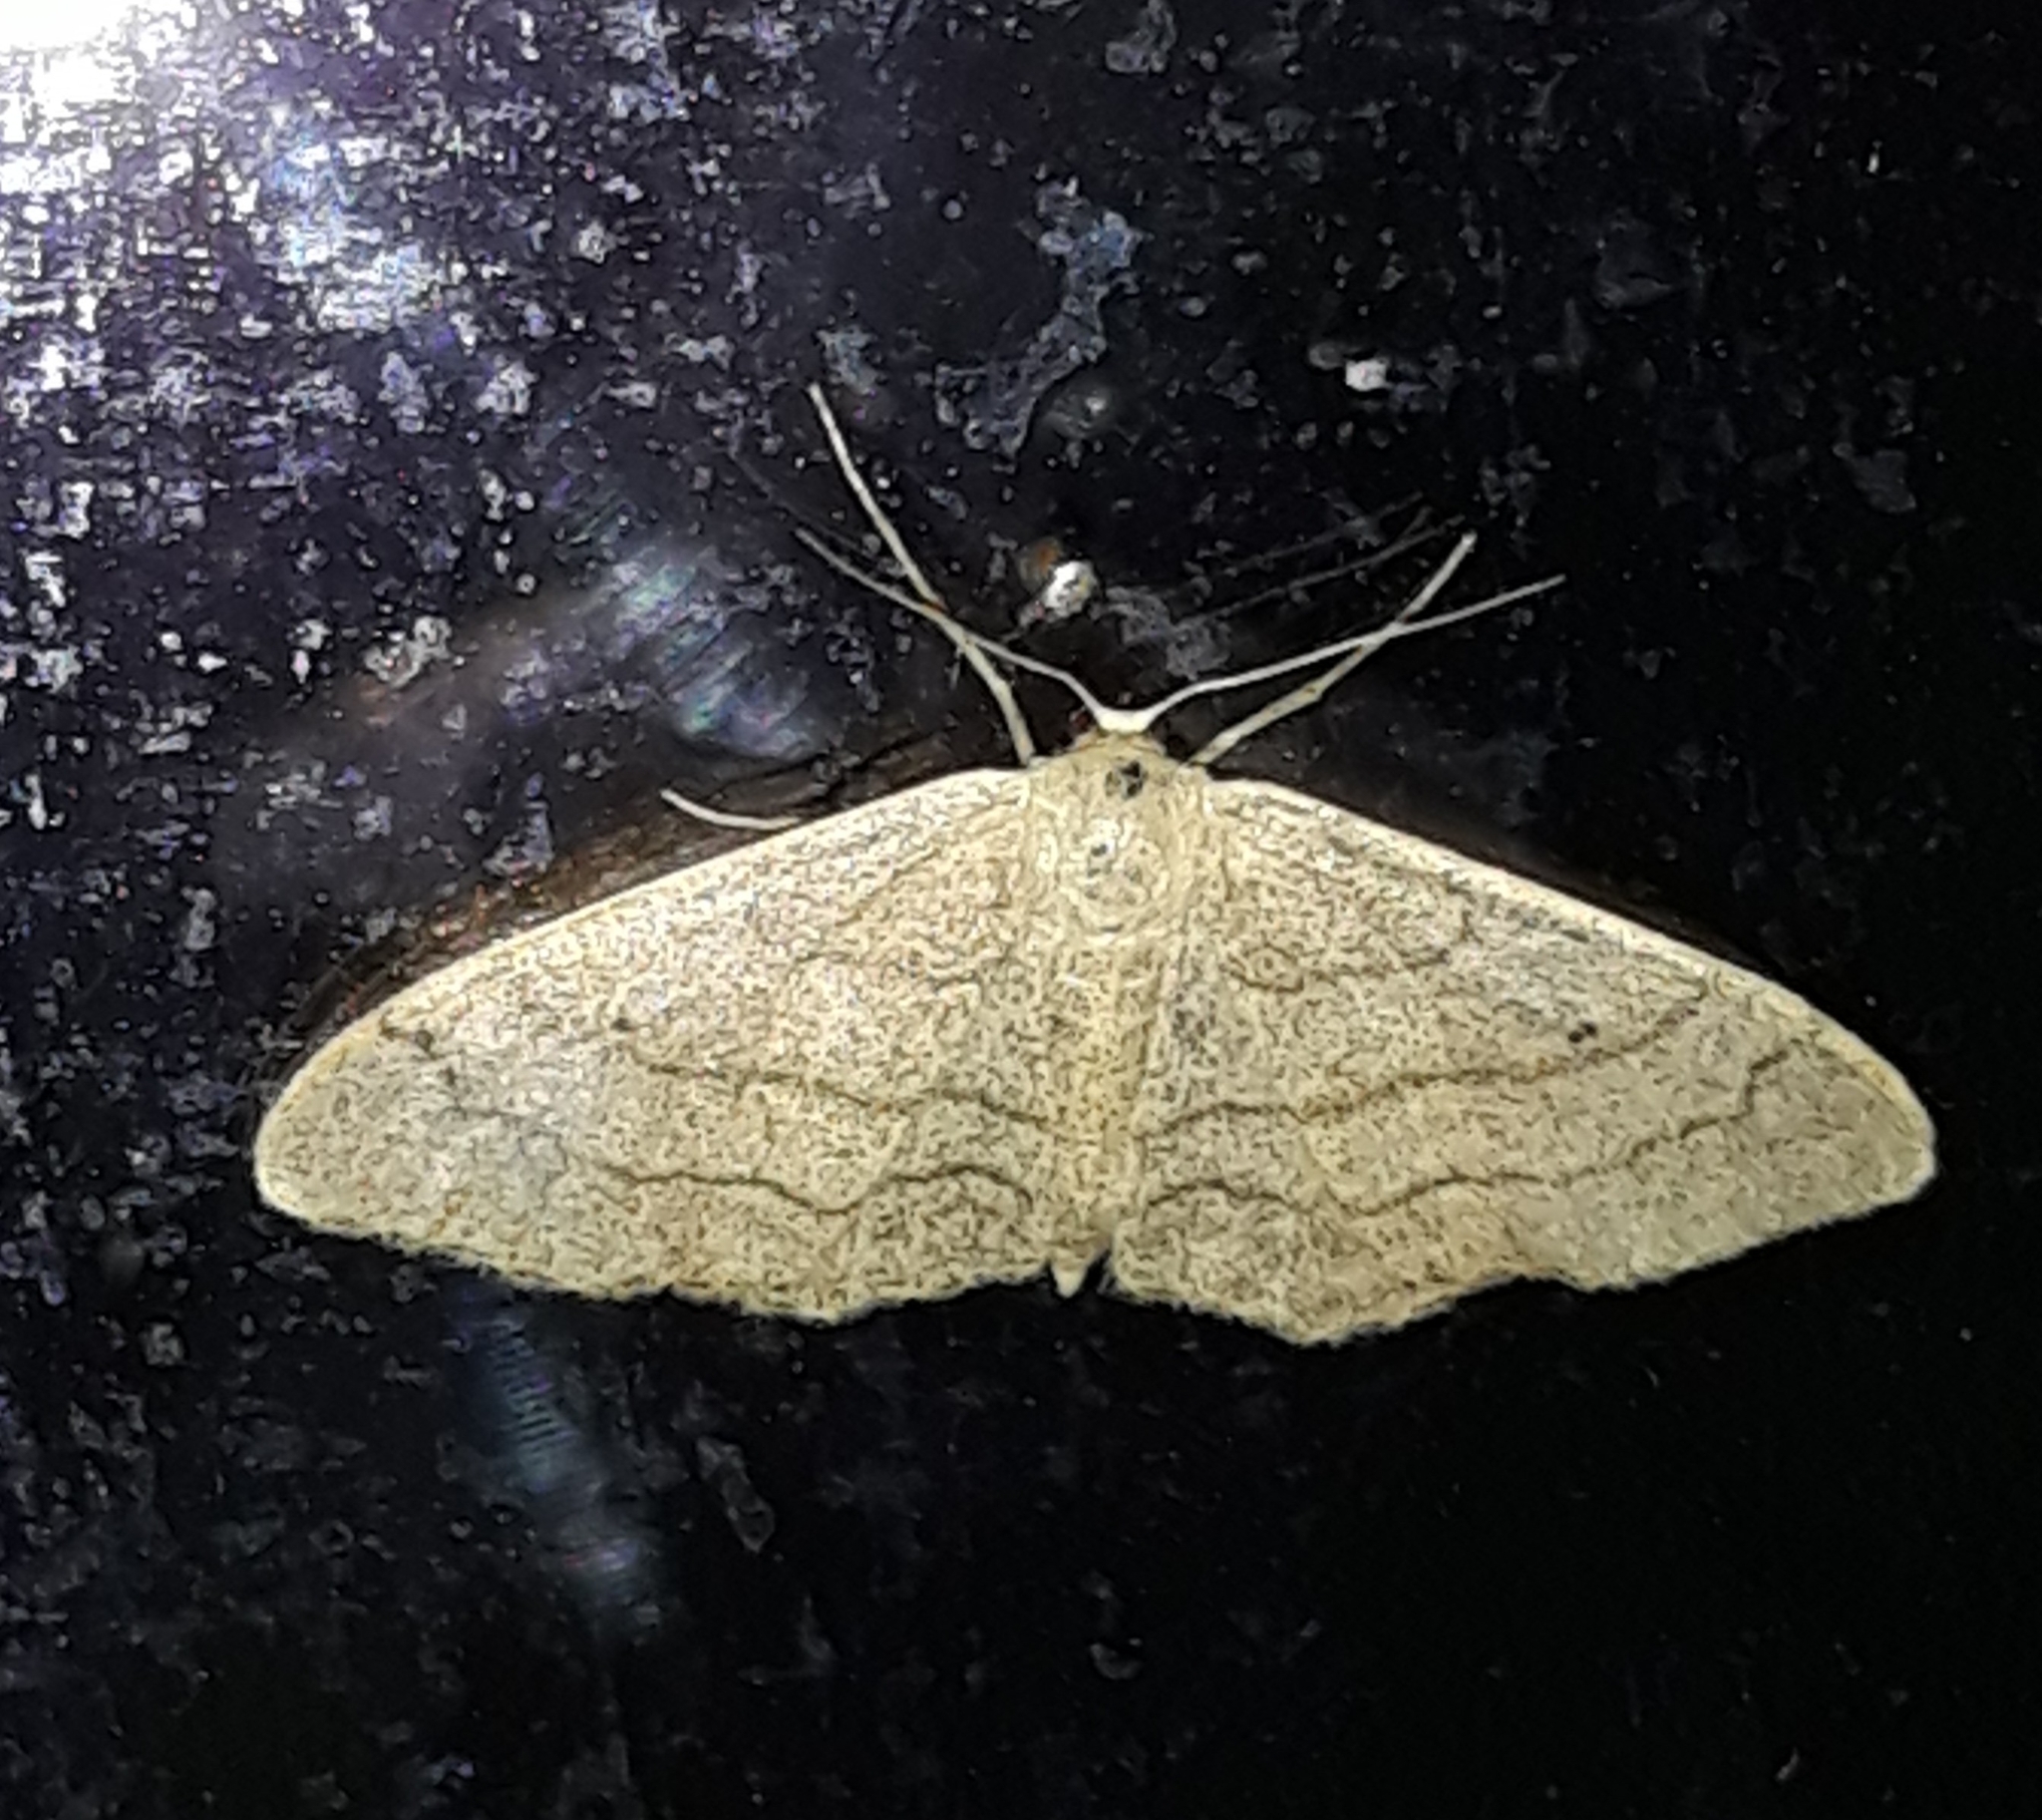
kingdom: Animalia
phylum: Arthropoda
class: Insecta
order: Lepidoptera
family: Geometridae
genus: Idaea
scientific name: Idaea aversata
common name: Riband wave
